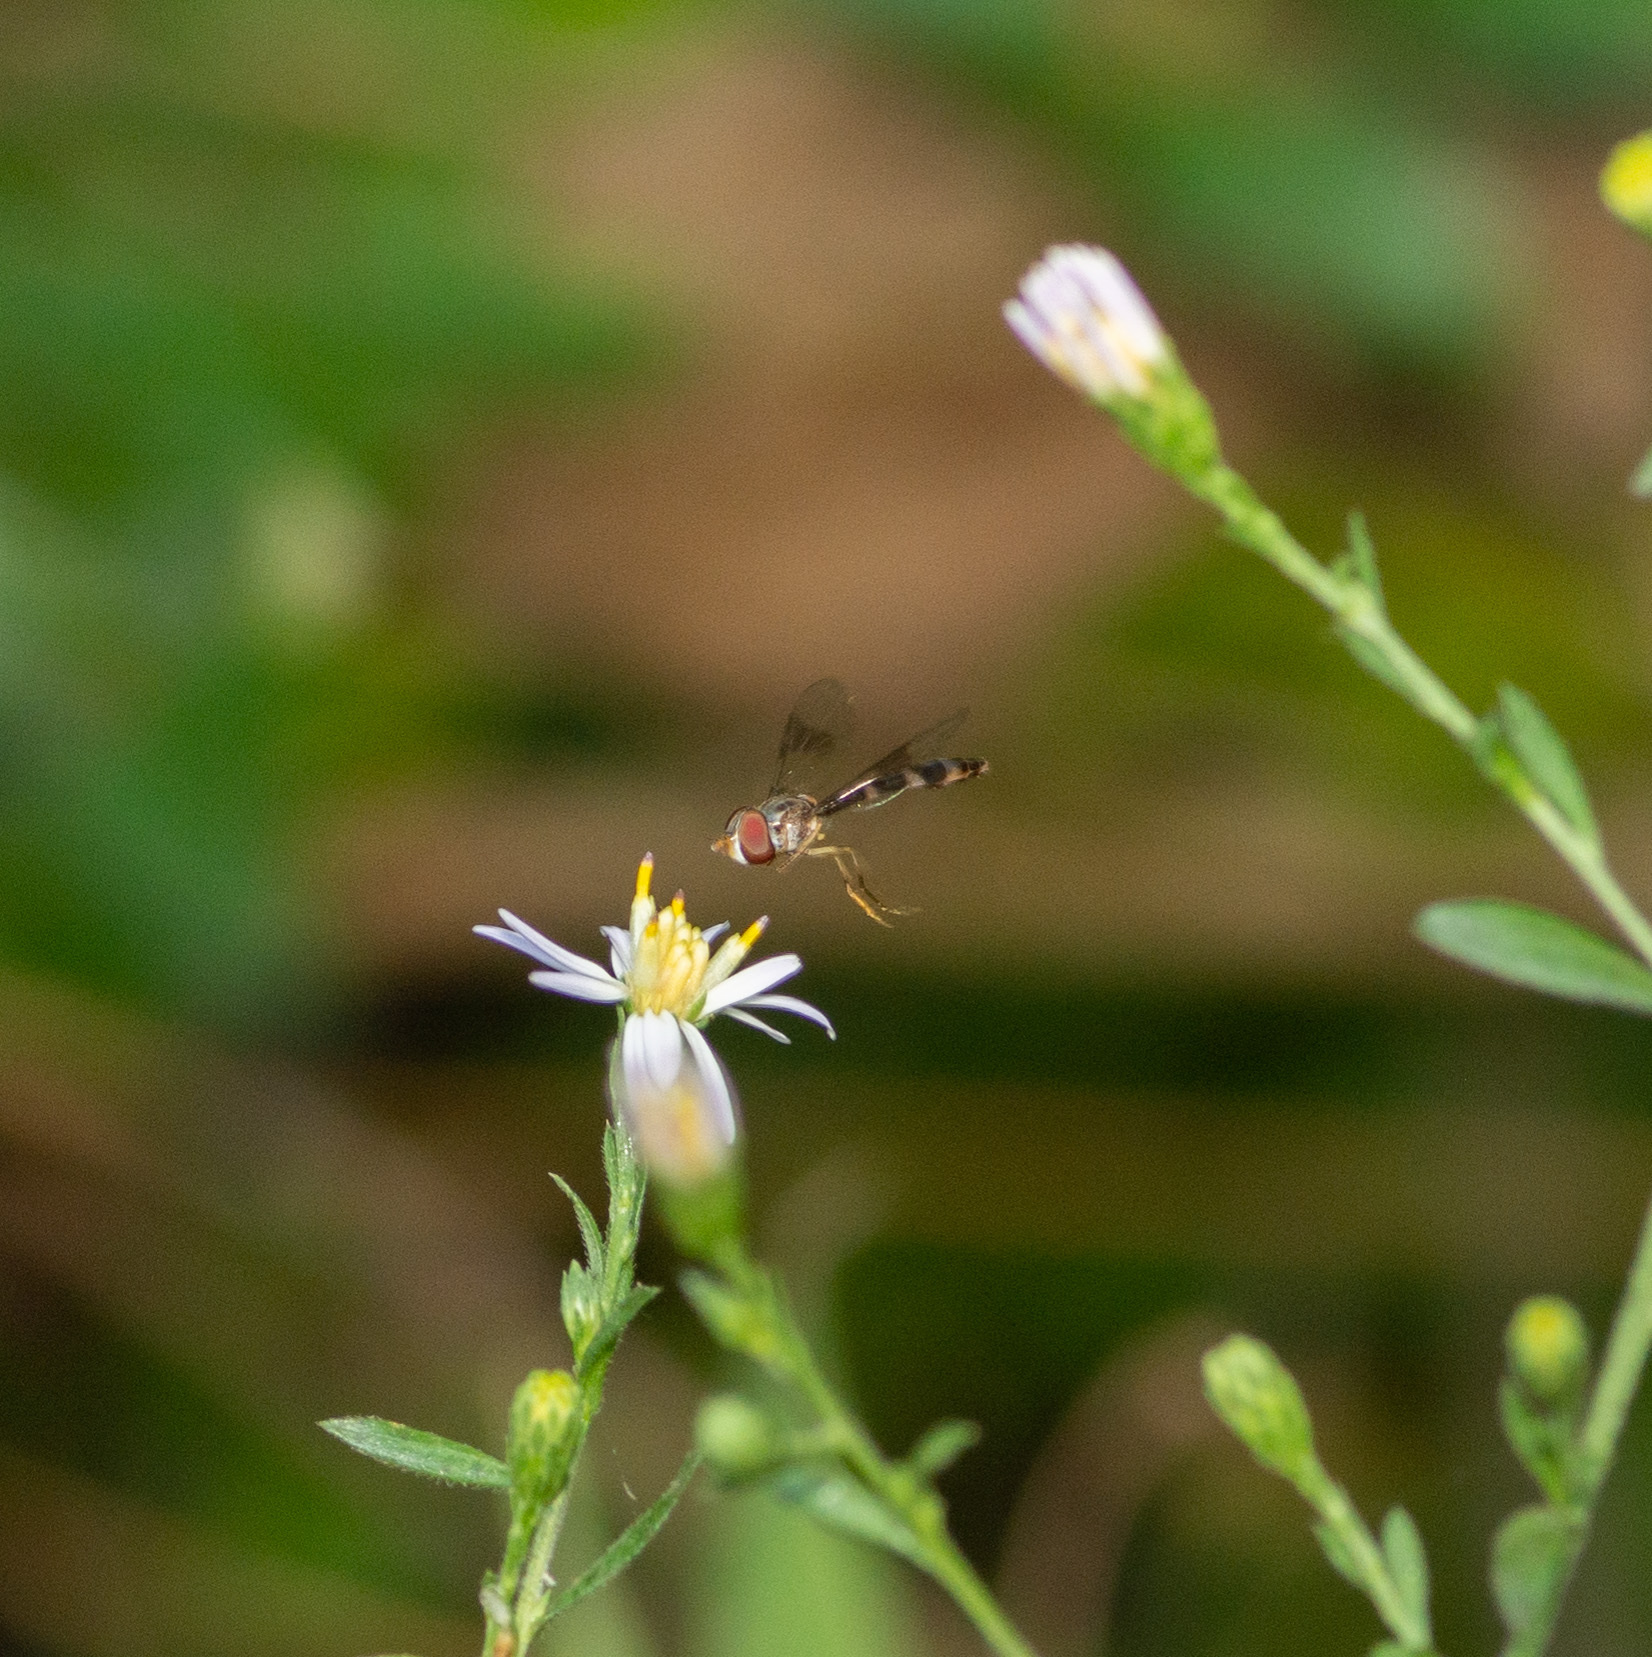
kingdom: Animalia
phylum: Arthropoda
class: Insecta
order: Diptera
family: Syrphidae
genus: Hypocritanus
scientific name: Hypocritanus fascipennis
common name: Eastern band-winged hover fly
